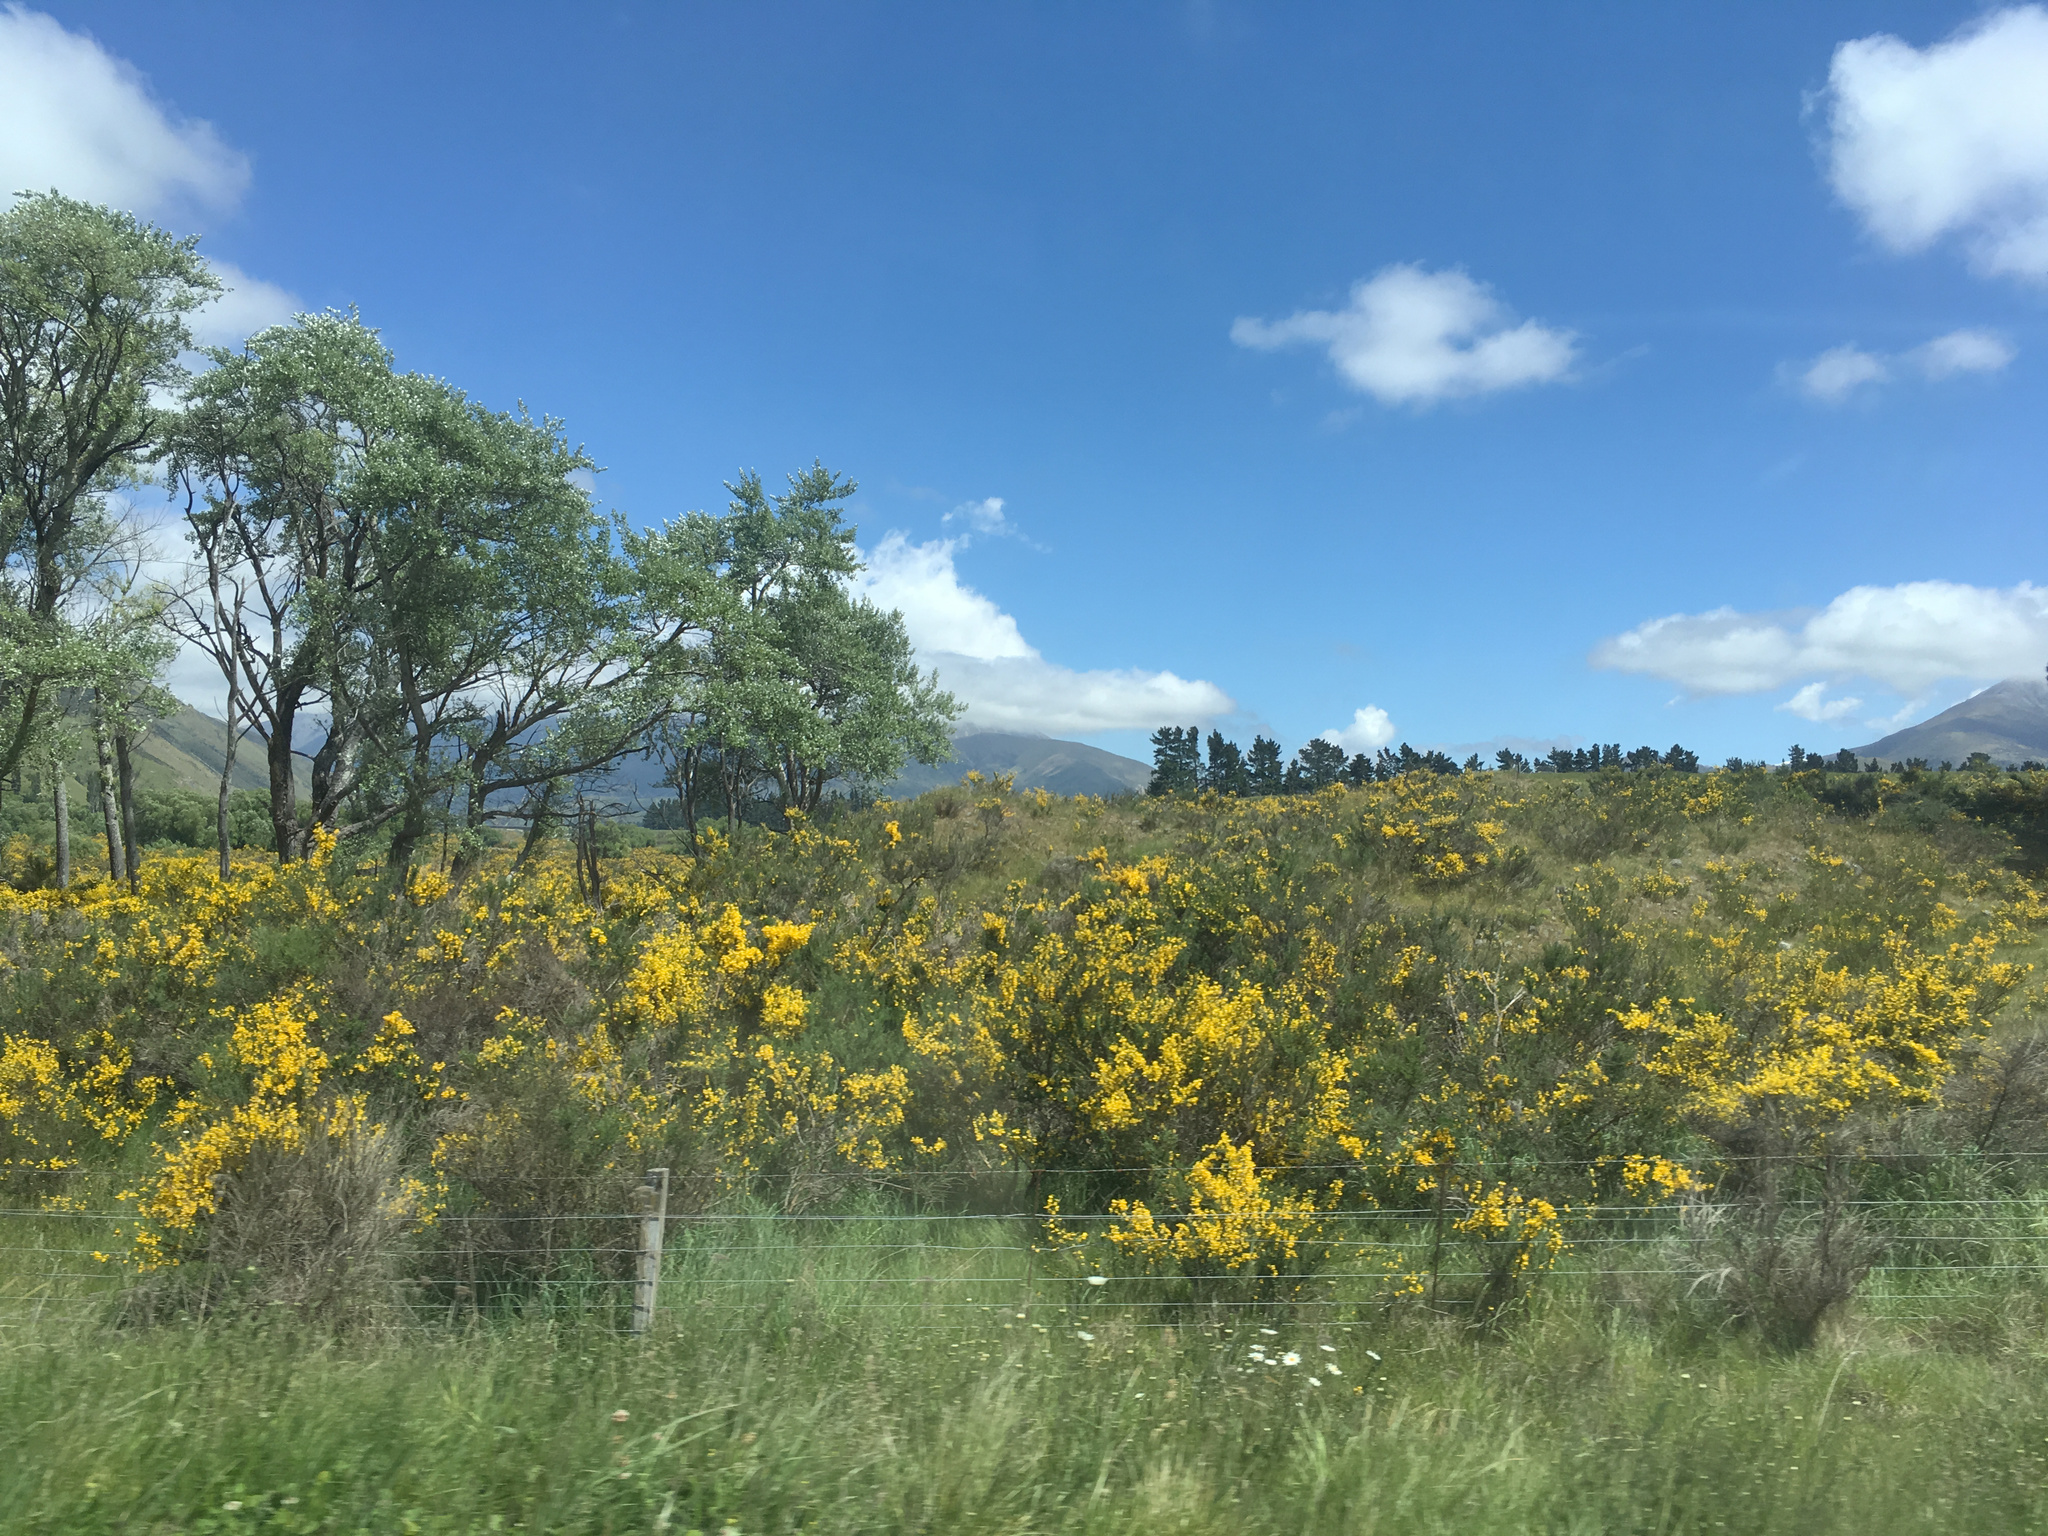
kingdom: Plantae
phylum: Tracheophyta
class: Magnoliopsida
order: Fabales
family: Fabaceae
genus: Cytisus
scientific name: Cytisus scoparius
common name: Scotch broom
